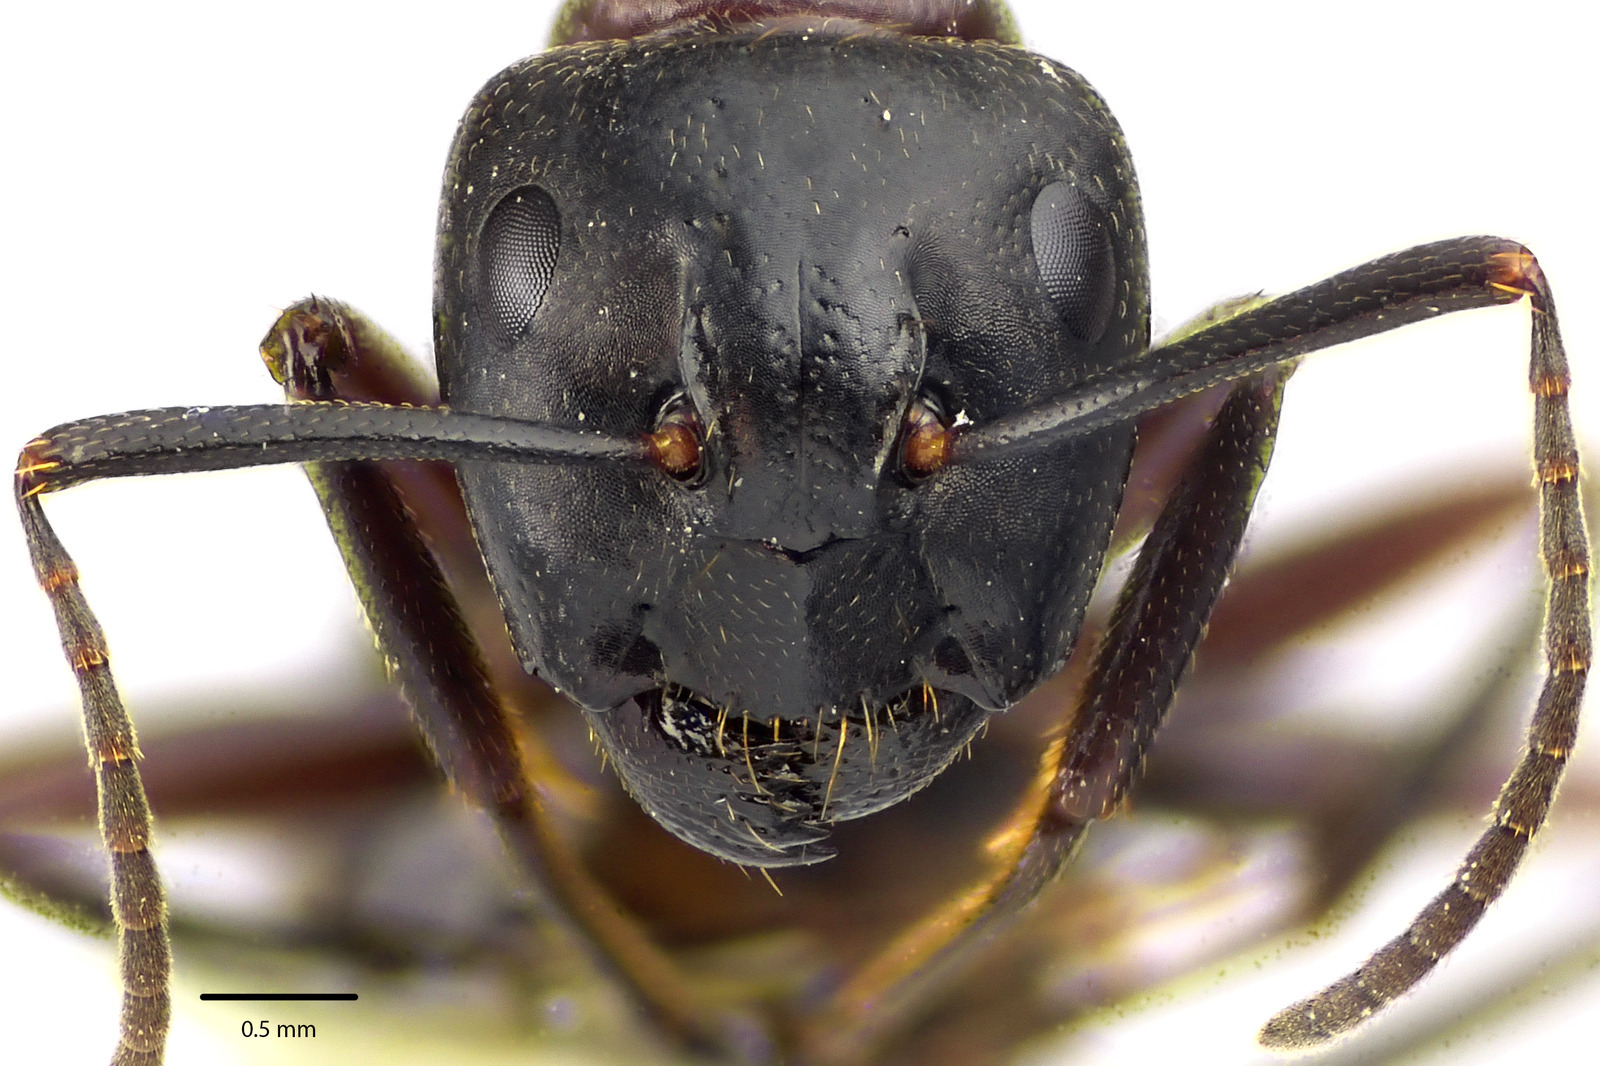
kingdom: Animalia
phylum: Arthropoda
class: Insecta
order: Hymenoptera
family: Formicidae
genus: Camponotus
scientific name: Camponotus novaeboracensis
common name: New york carpenter ant
